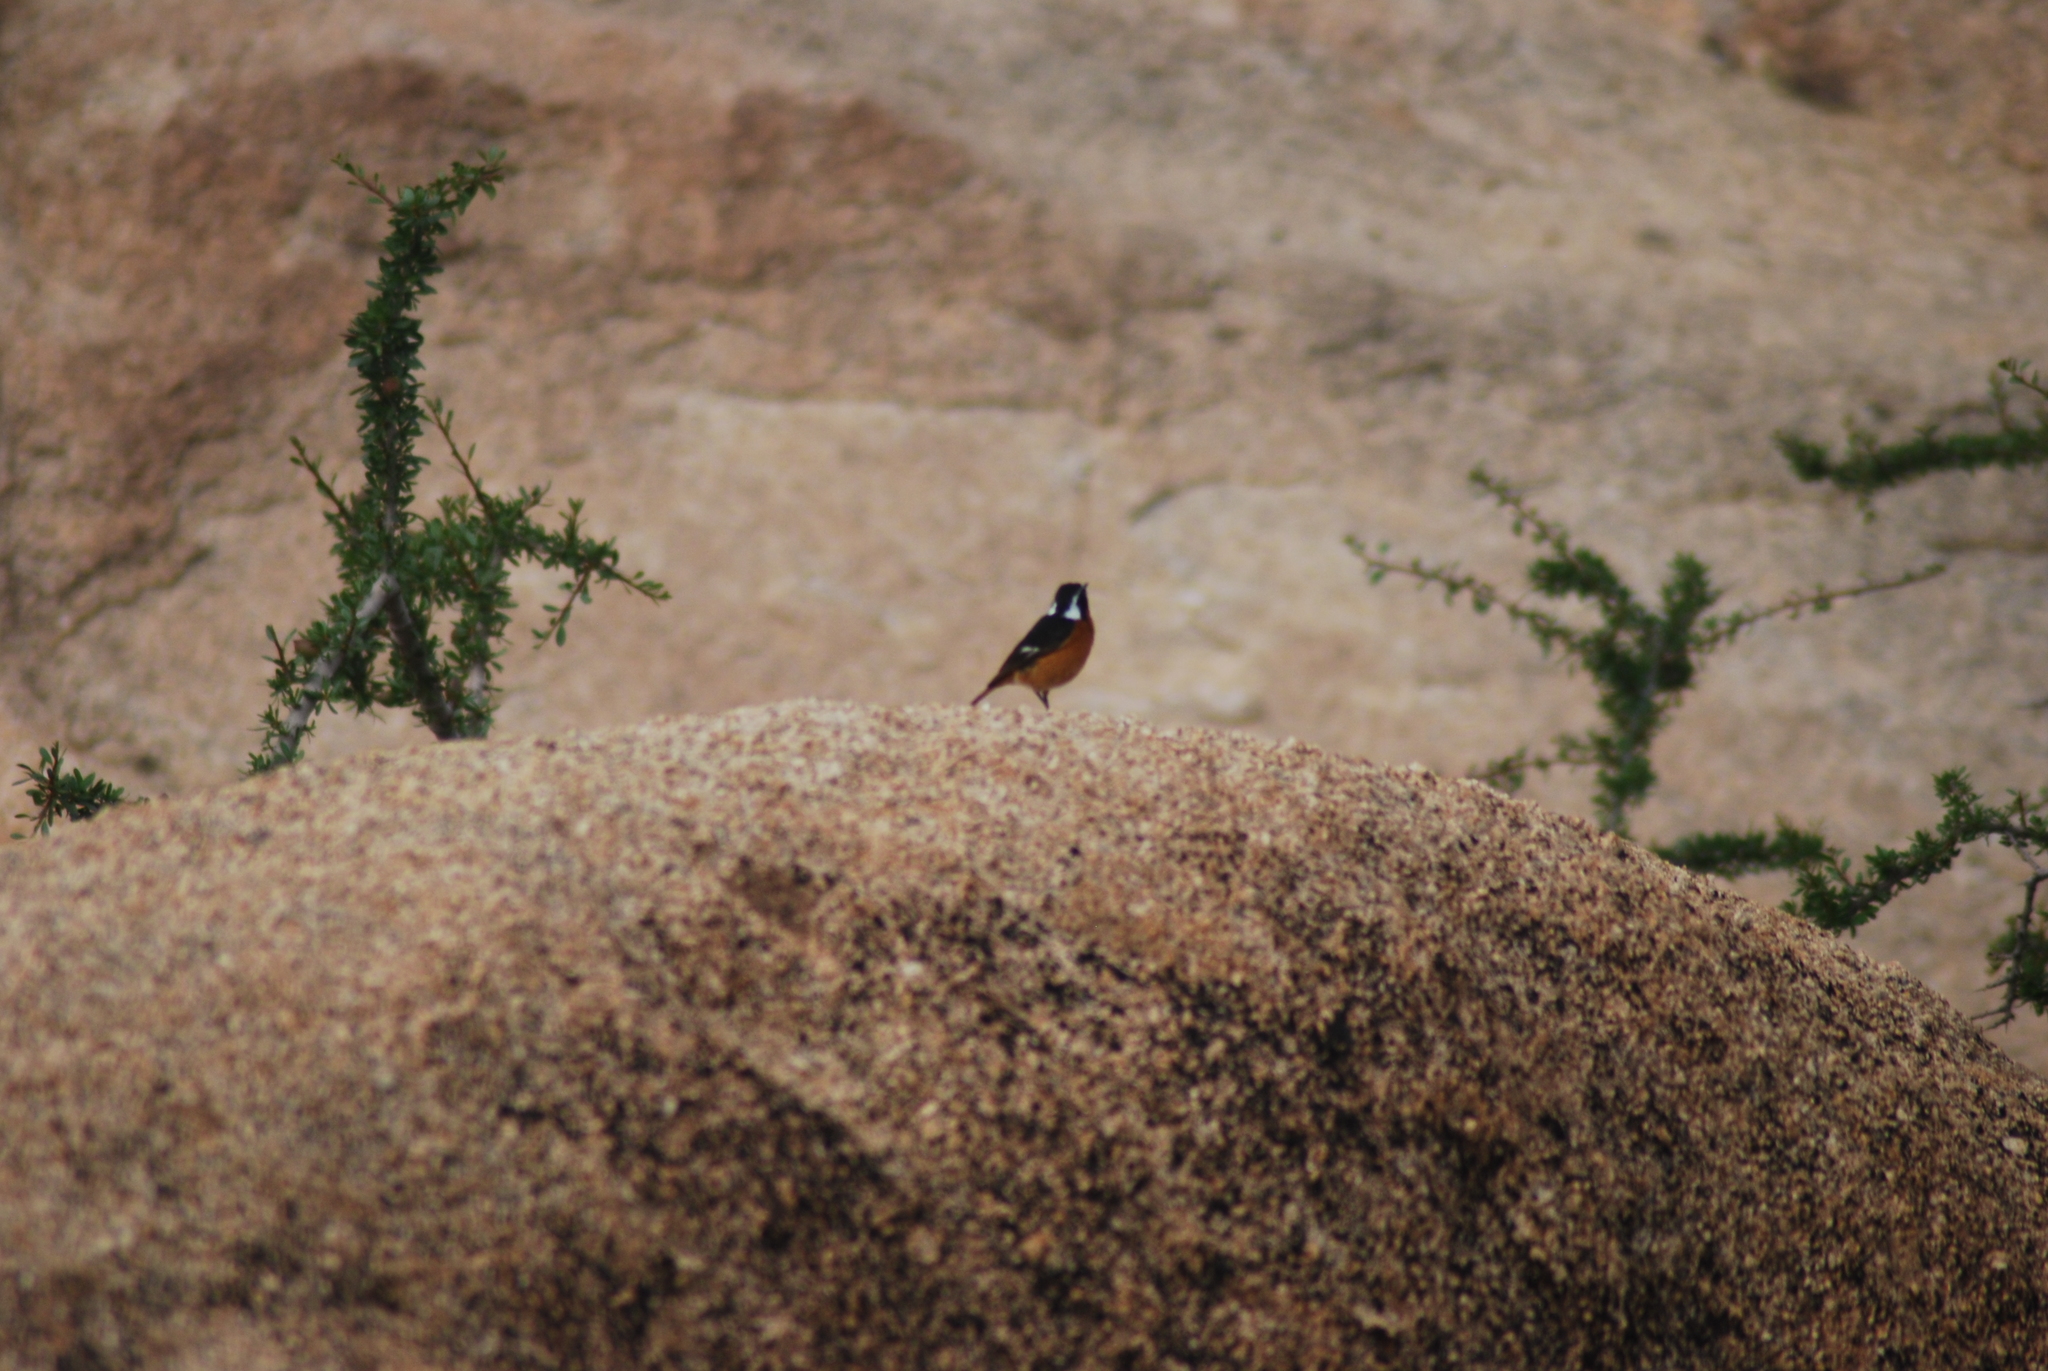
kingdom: Animalia
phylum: Chordata
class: Aves
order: Passeriformes
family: Muscicapidae
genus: Phoenicurus
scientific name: Phoenicurus moussieri
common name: Moussier's redstart
